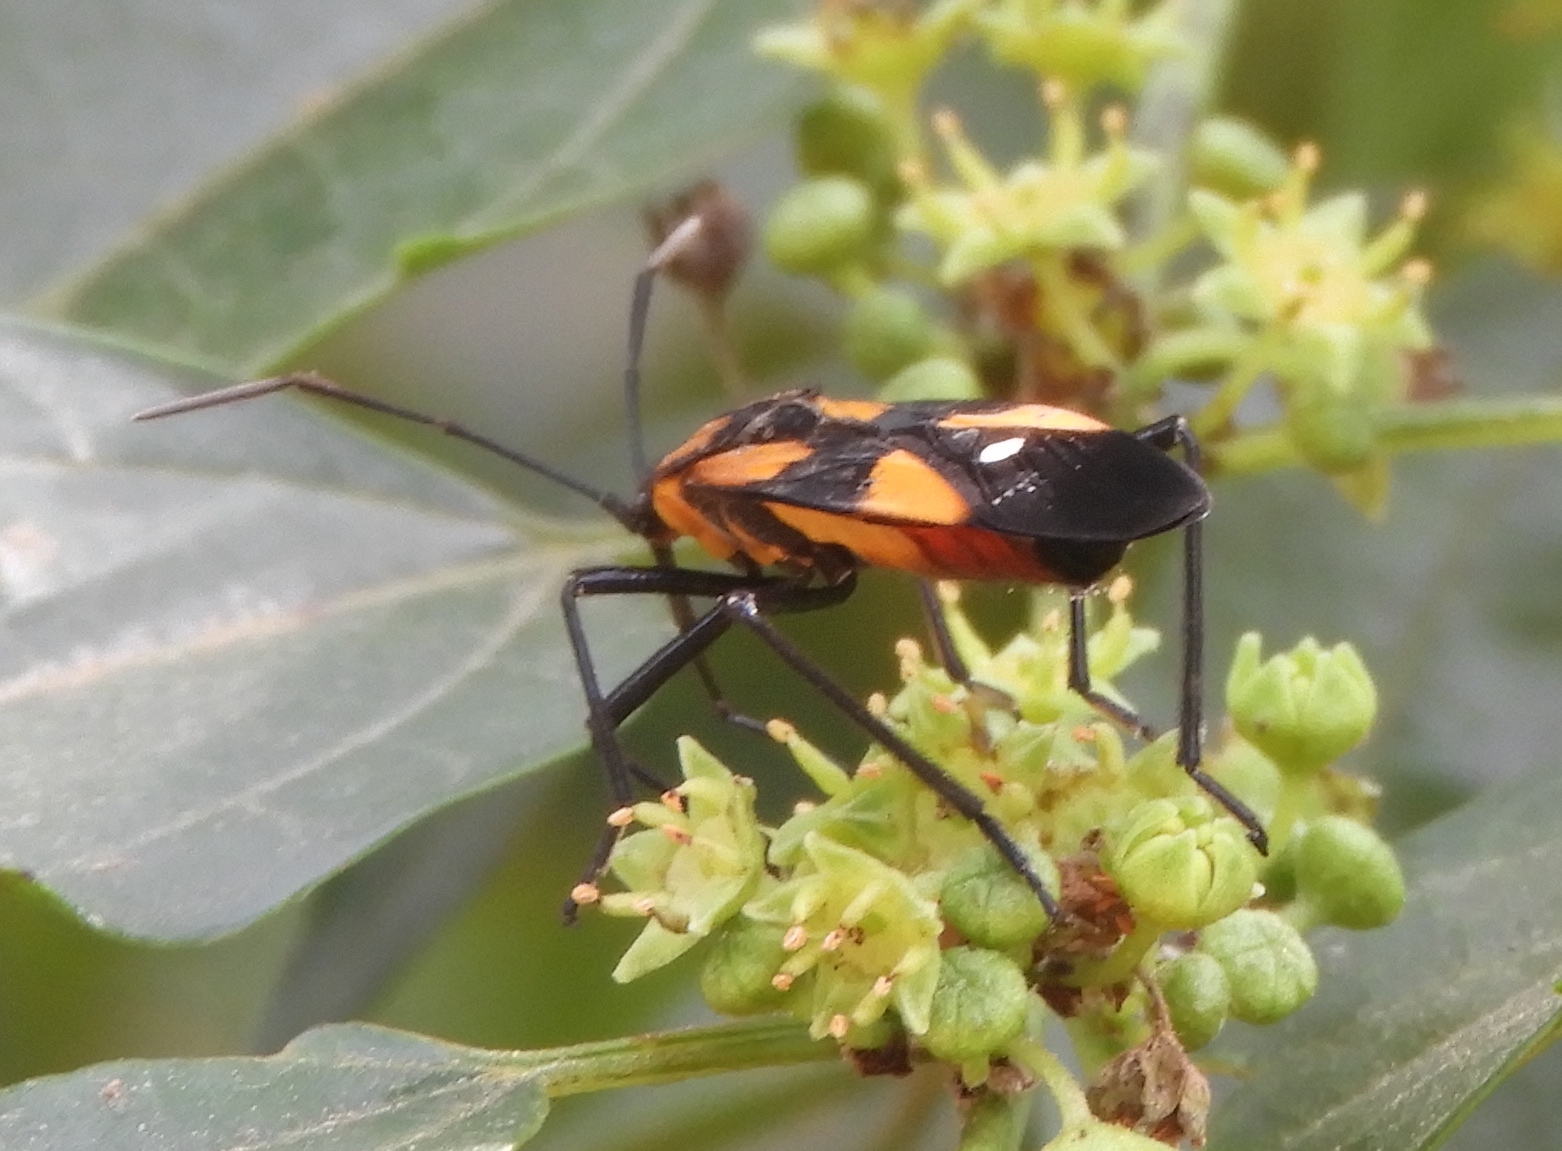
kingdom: Animalia
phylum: Arthropoda
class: Insecta
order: Hemiptera
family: Lygaeidae
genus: Oncopeltus
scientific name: Oncopeltus
